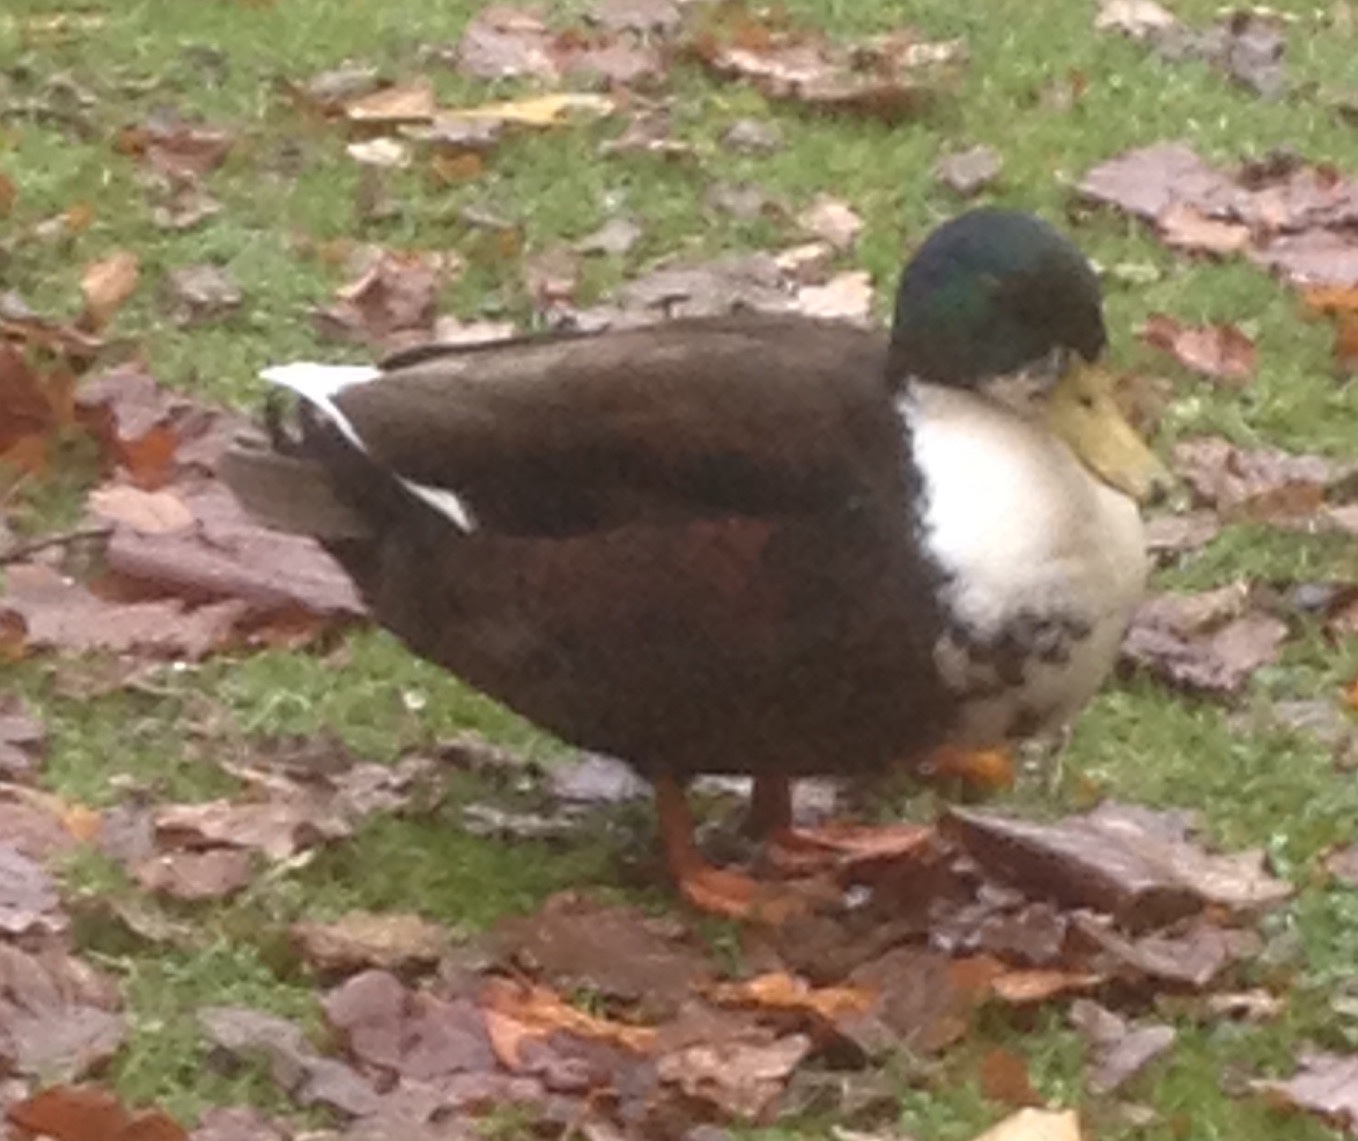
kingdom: Animalia
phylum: Chordata
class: Aves
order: Anseriformes
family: Anatidae
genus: Anas
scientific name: Anas platyrhynchos
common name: Mallard
